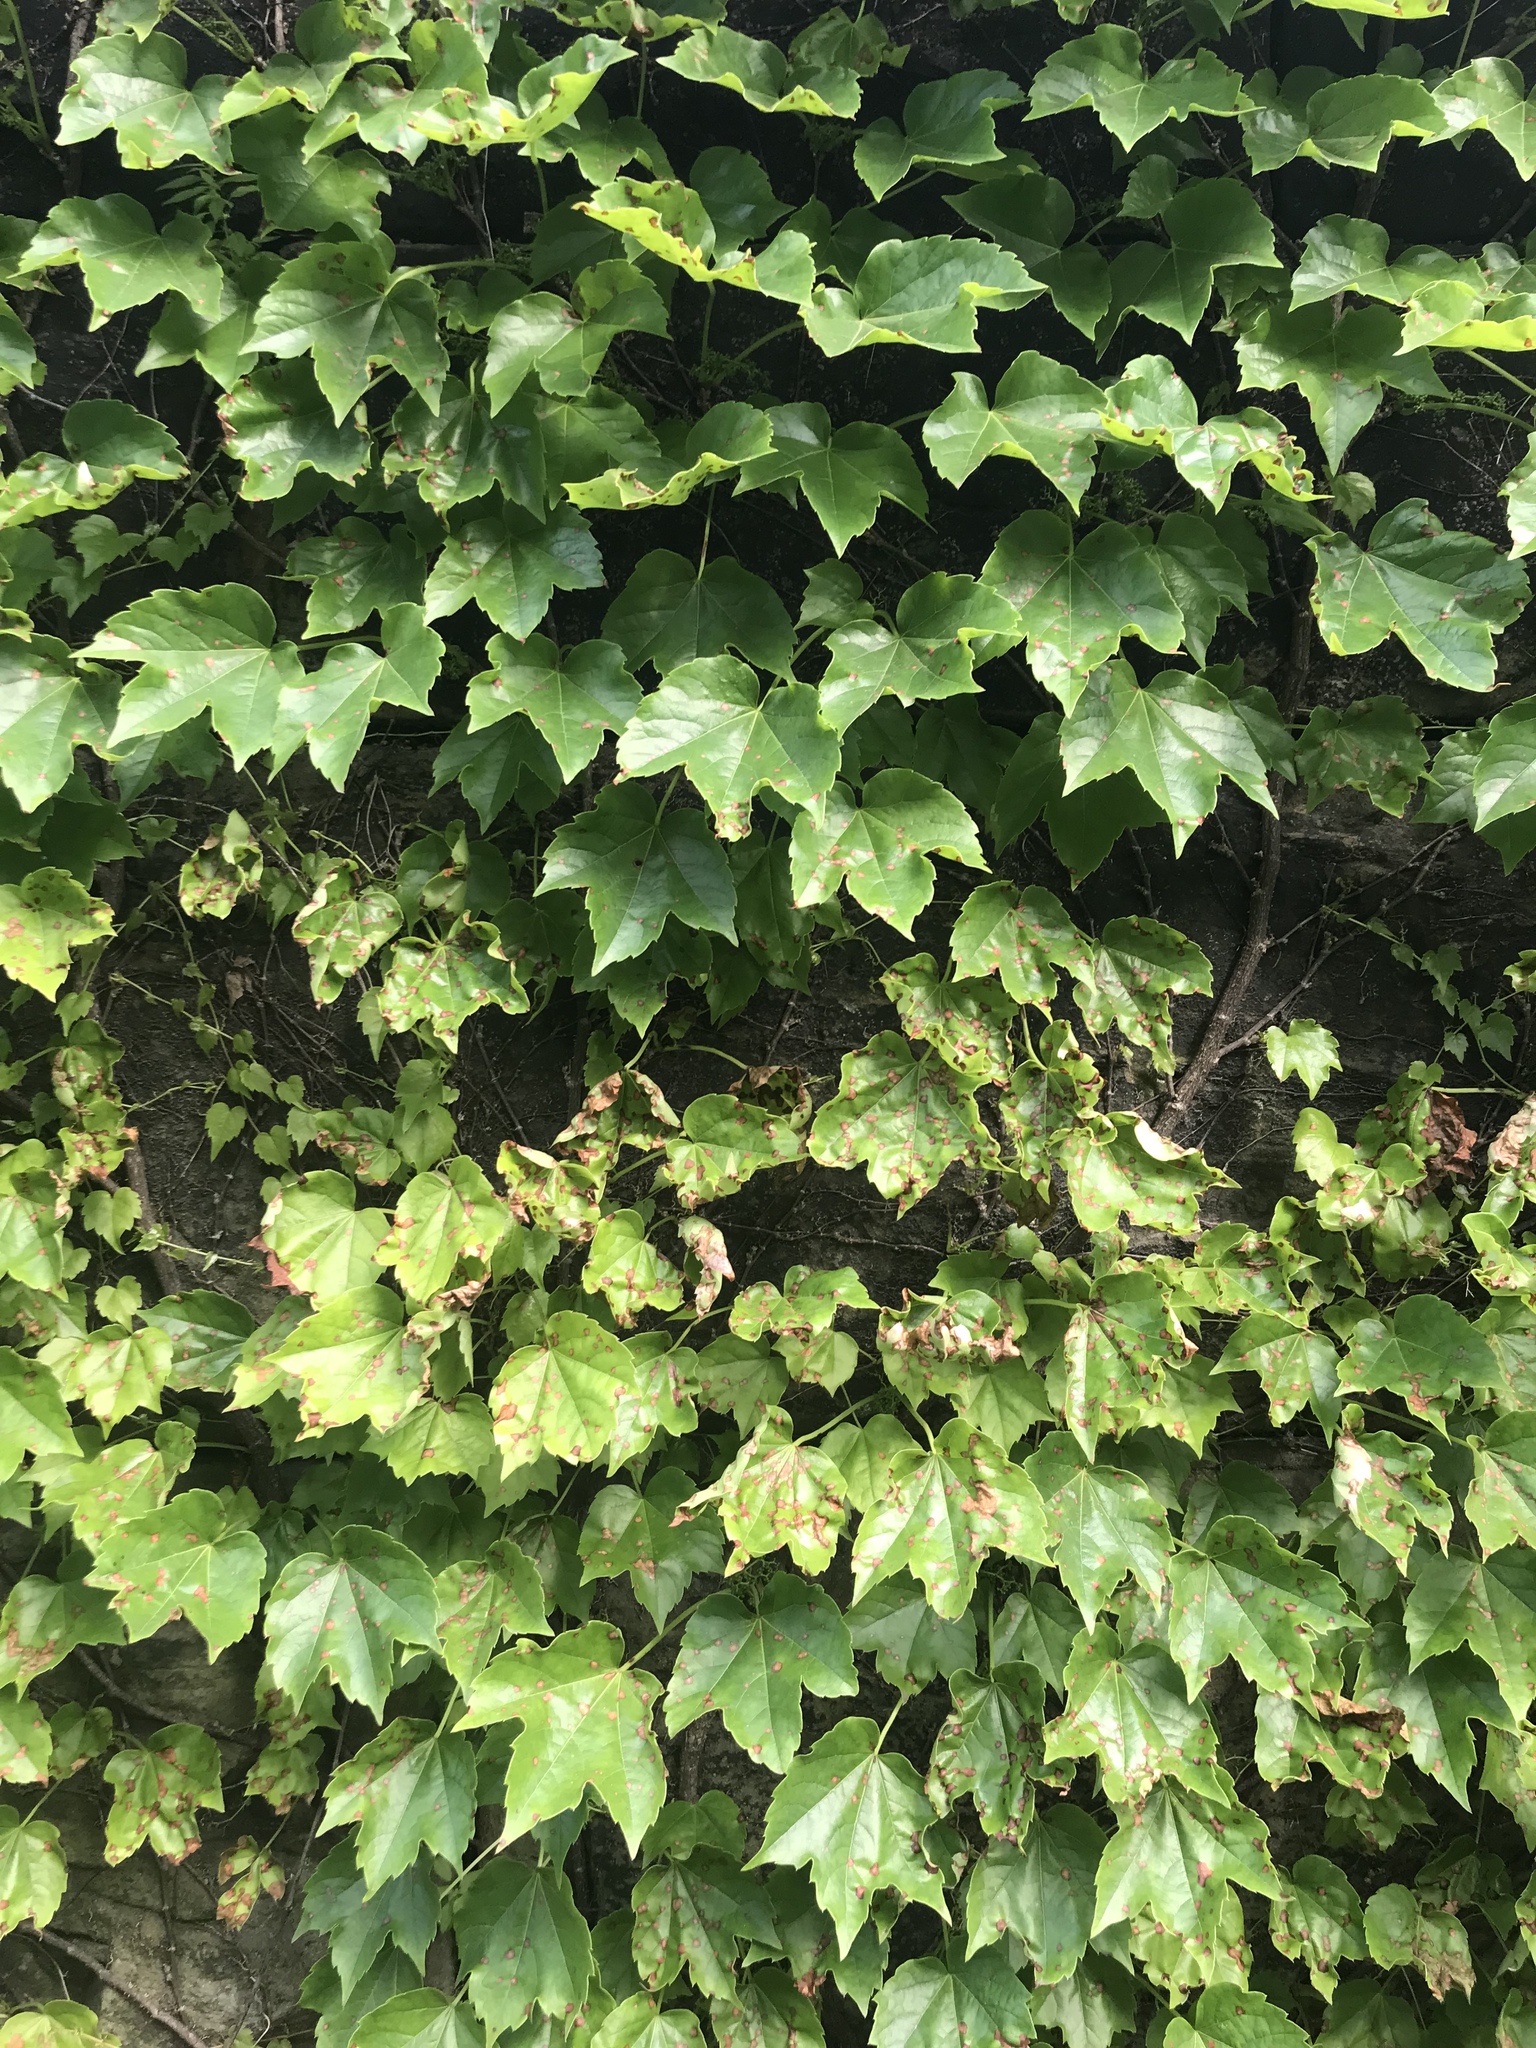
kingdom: Plantae
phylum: Tracheophyta
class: Magnoliopsida
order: Vitales
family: Vitaceae
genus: Parthenocissus
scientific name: Parthenocissus tricuspidata
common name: Boston ivy
